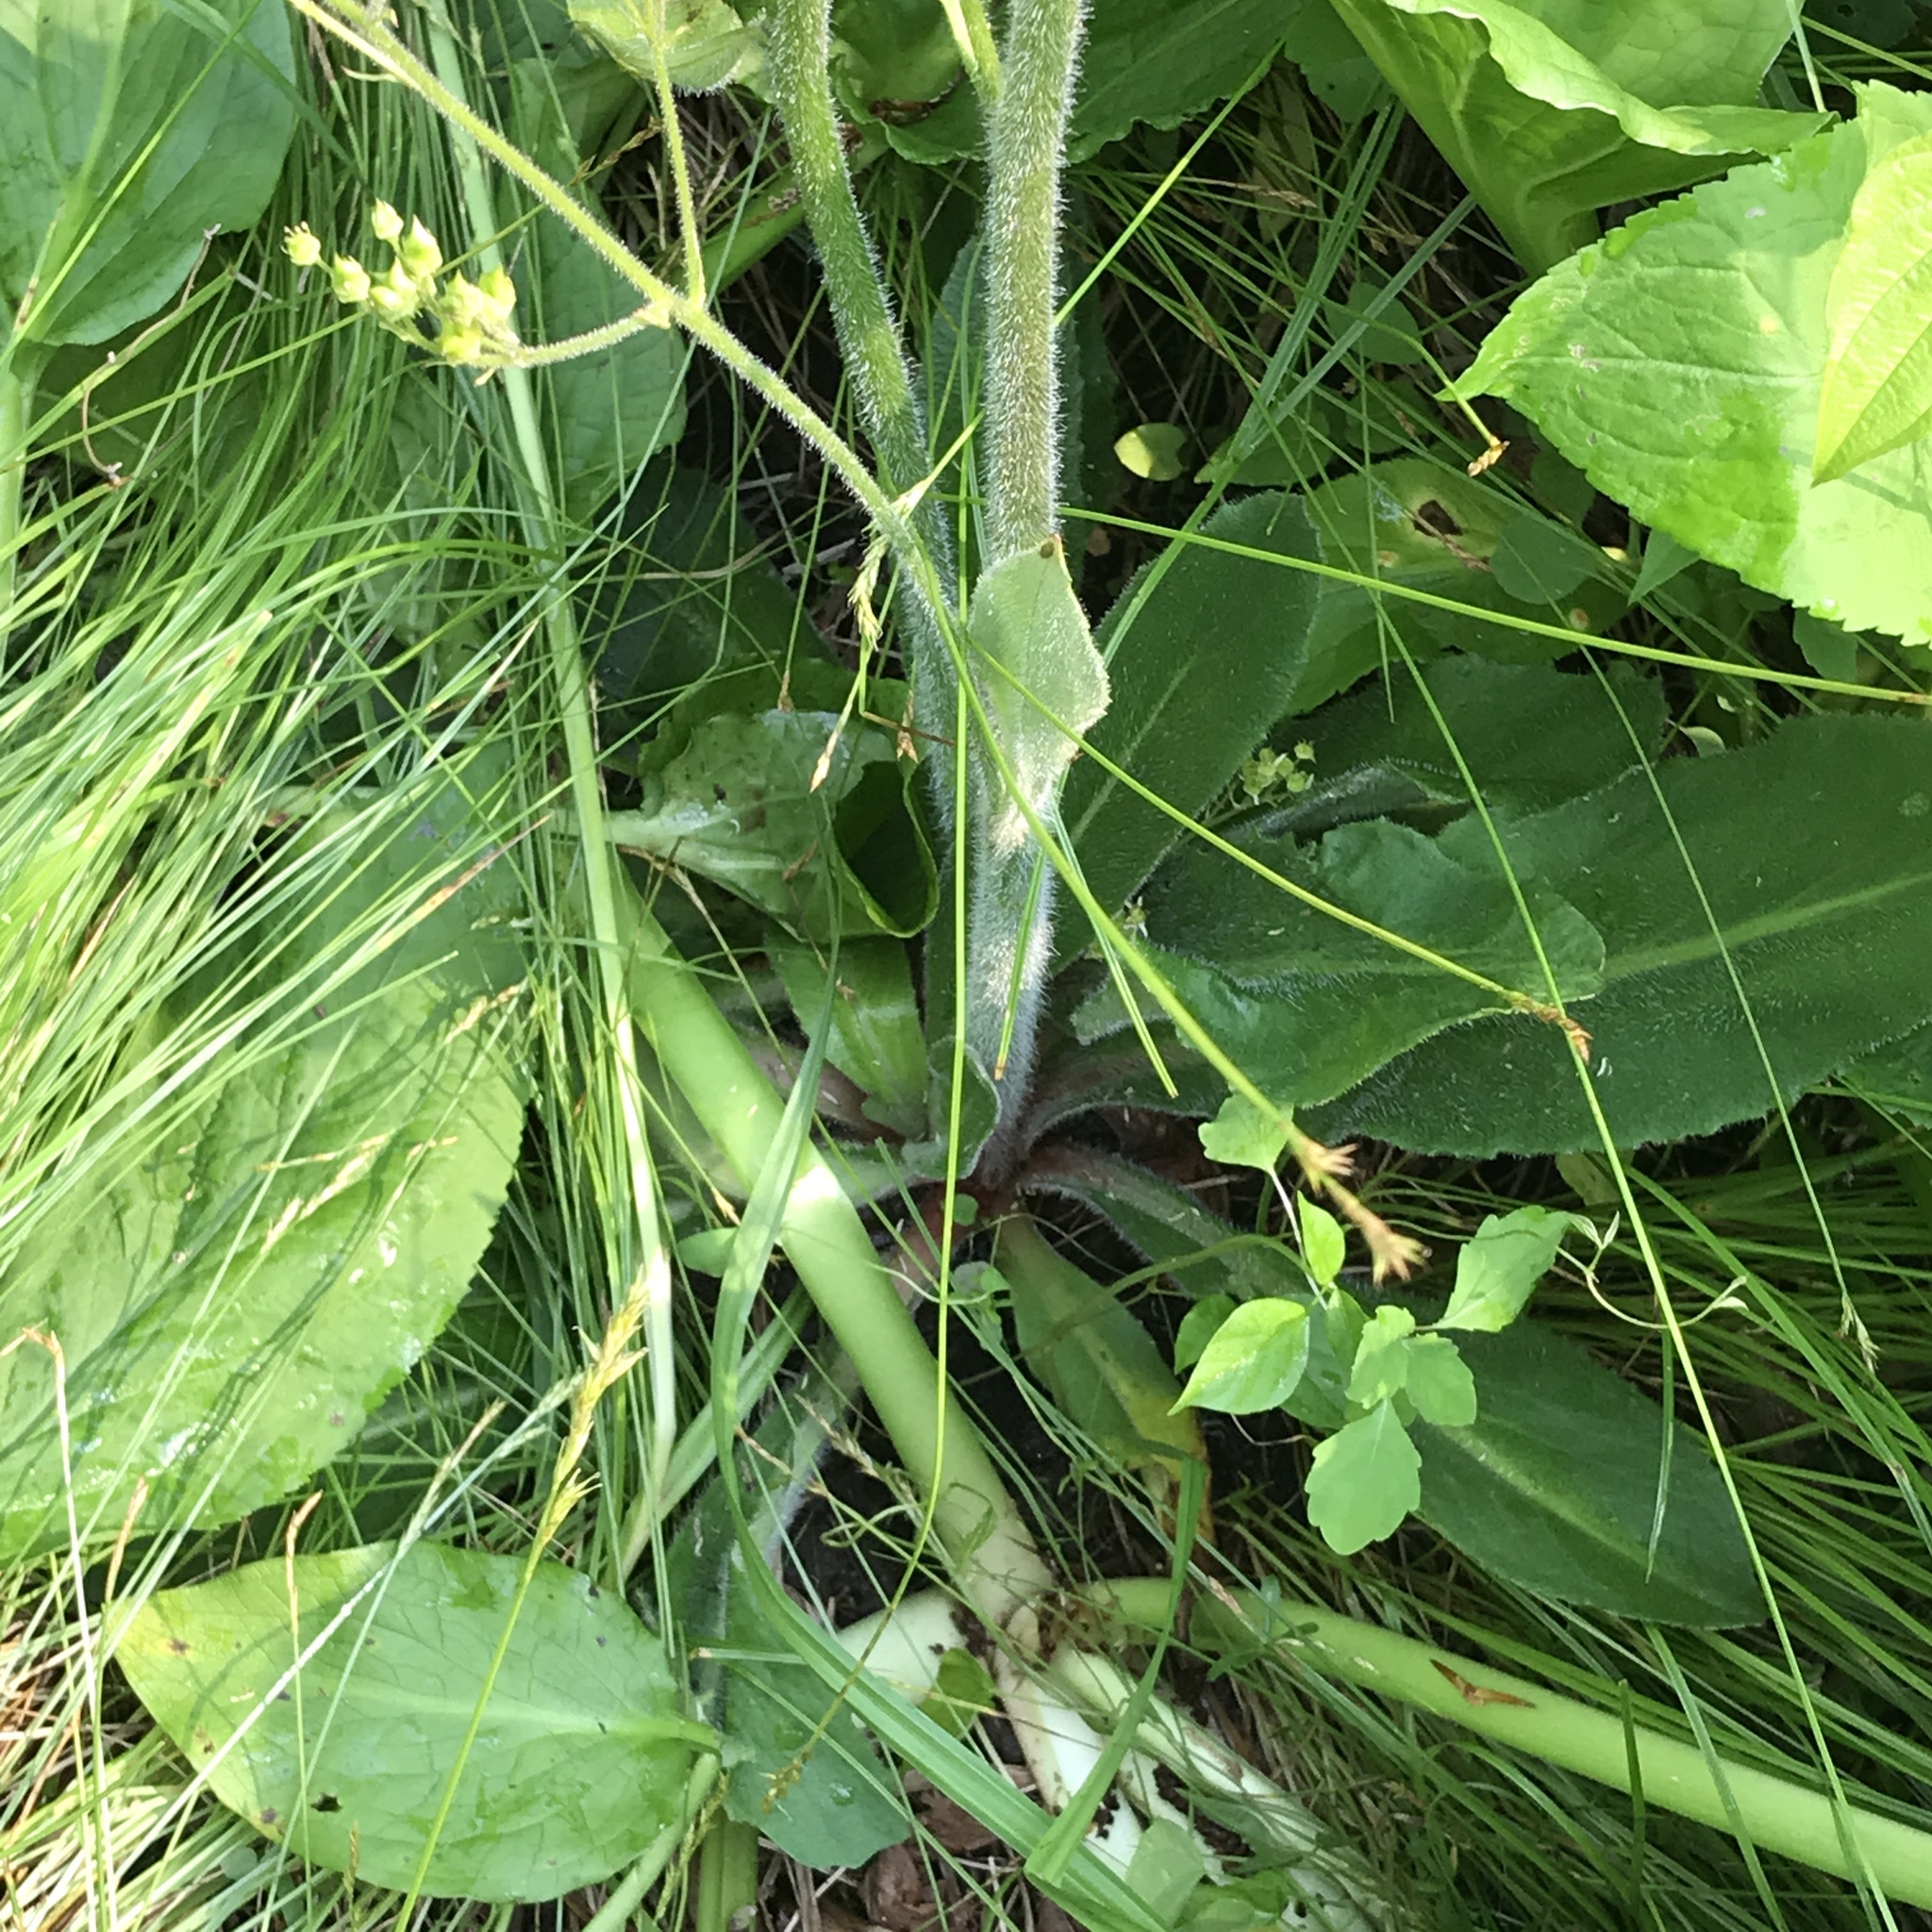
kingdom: Plantae
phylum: Tracheophyta
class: Magnoliopsida
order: Saxifragales
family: Saxifragaceae
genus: Micranthes
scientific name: Micranthes pensylvanica
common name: Marsh saxifrage
